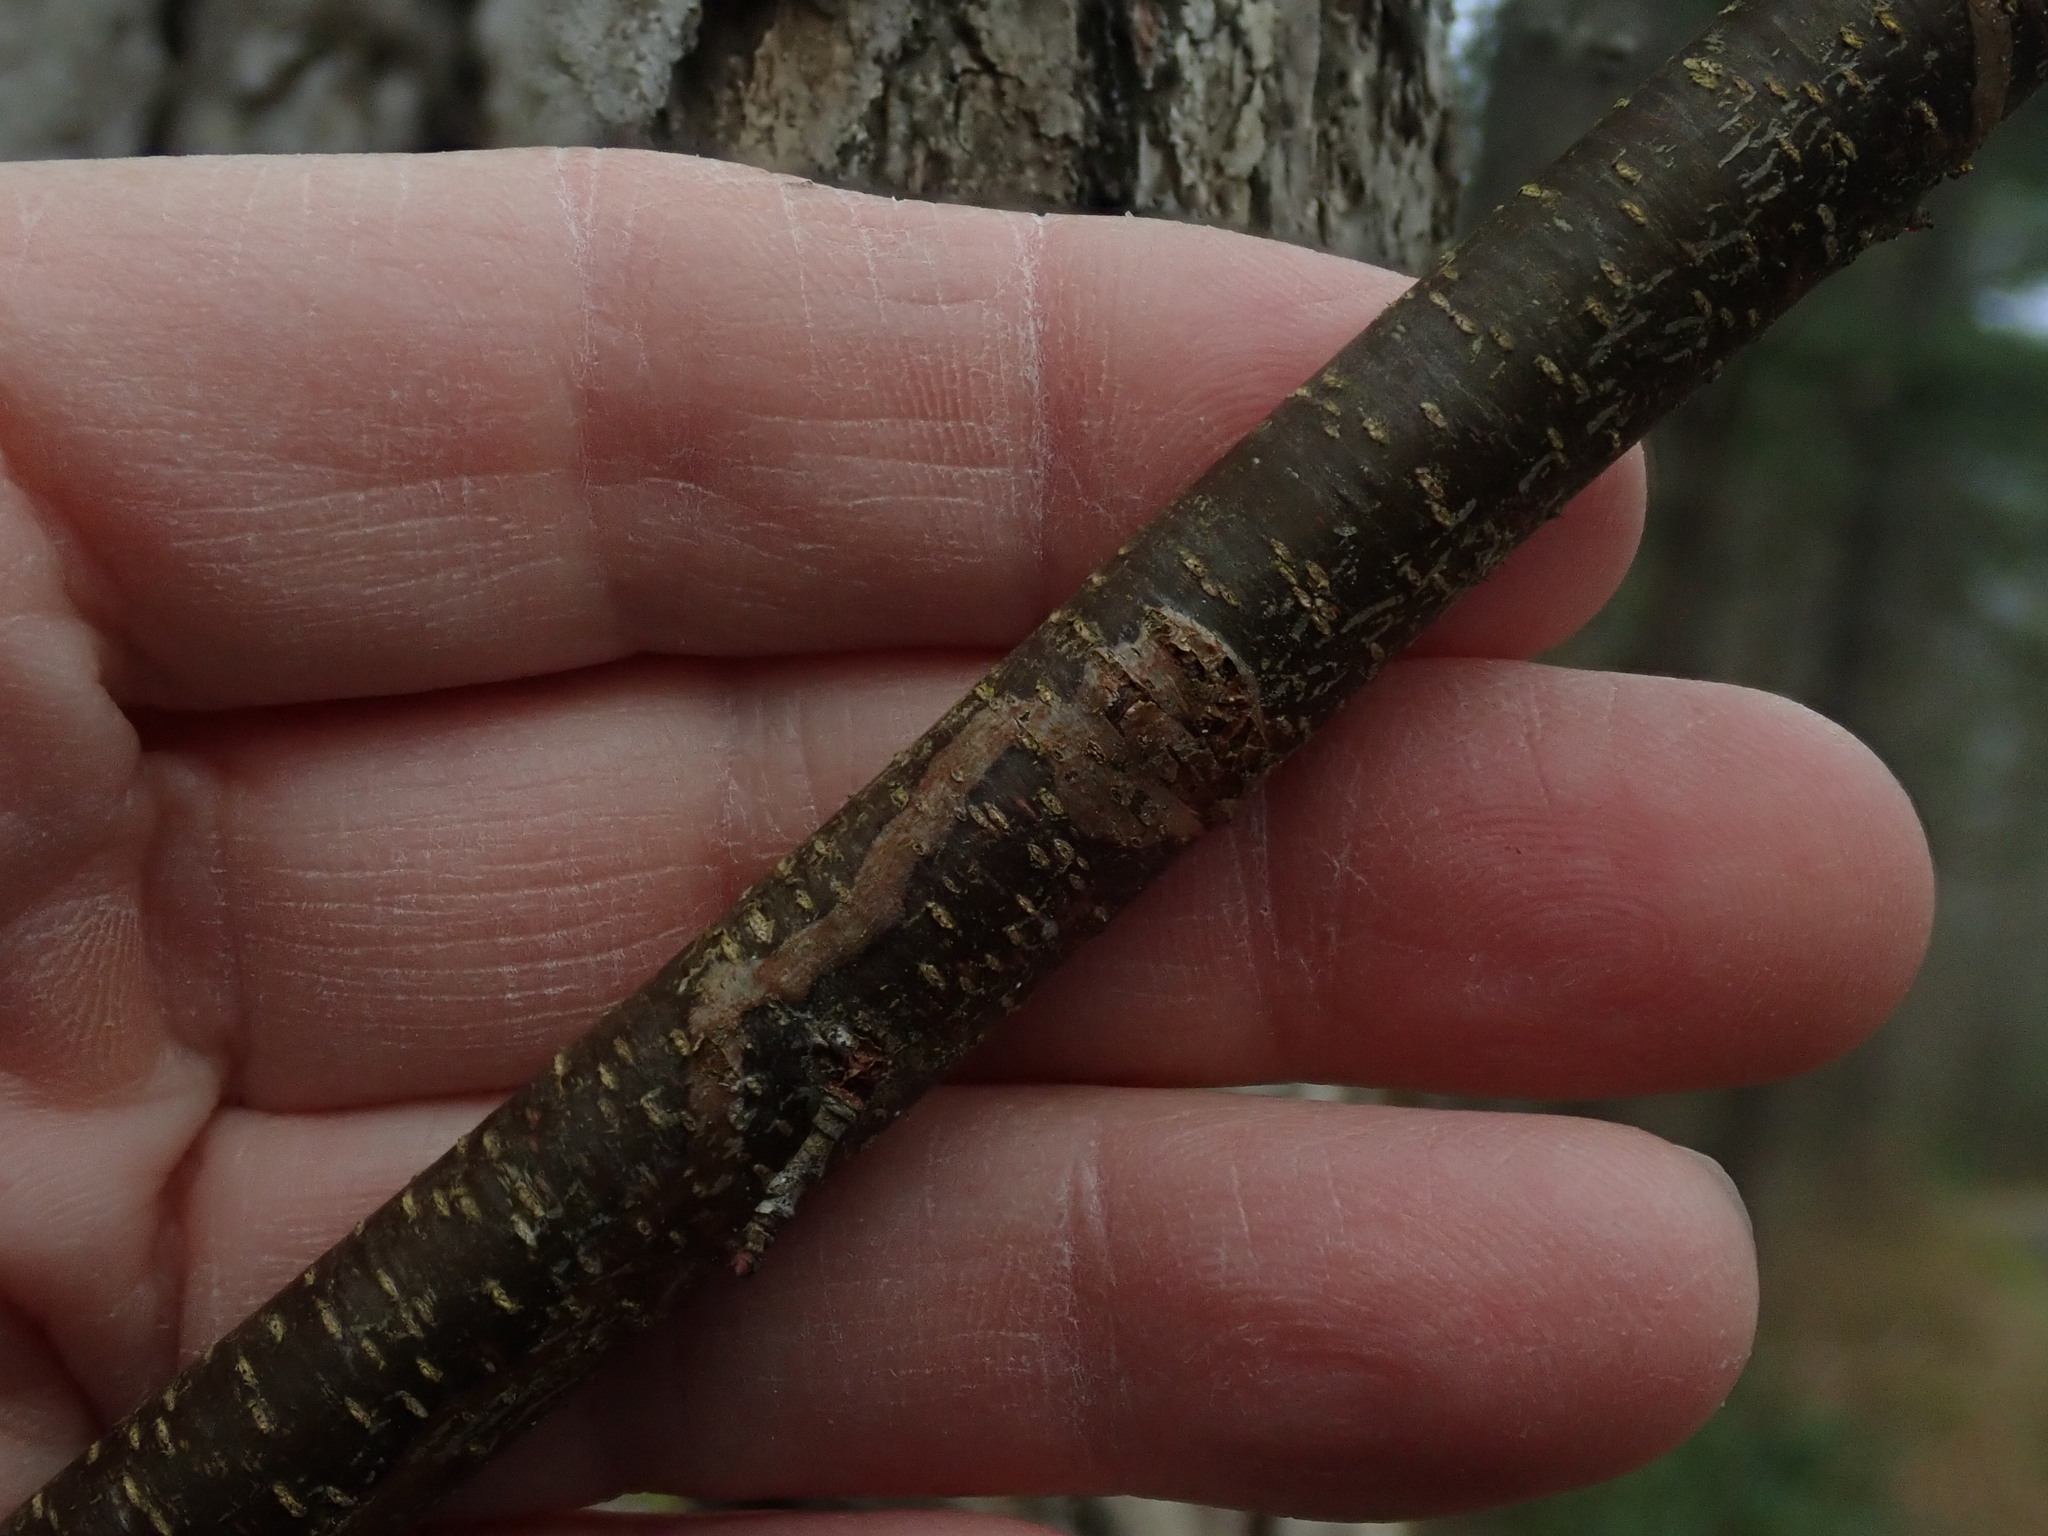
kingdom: Animalia
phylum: Arthropoda
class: Insecta
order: Lepidoptera
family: Gracillariidae
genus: Marmara
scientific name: Marmara serotinella
